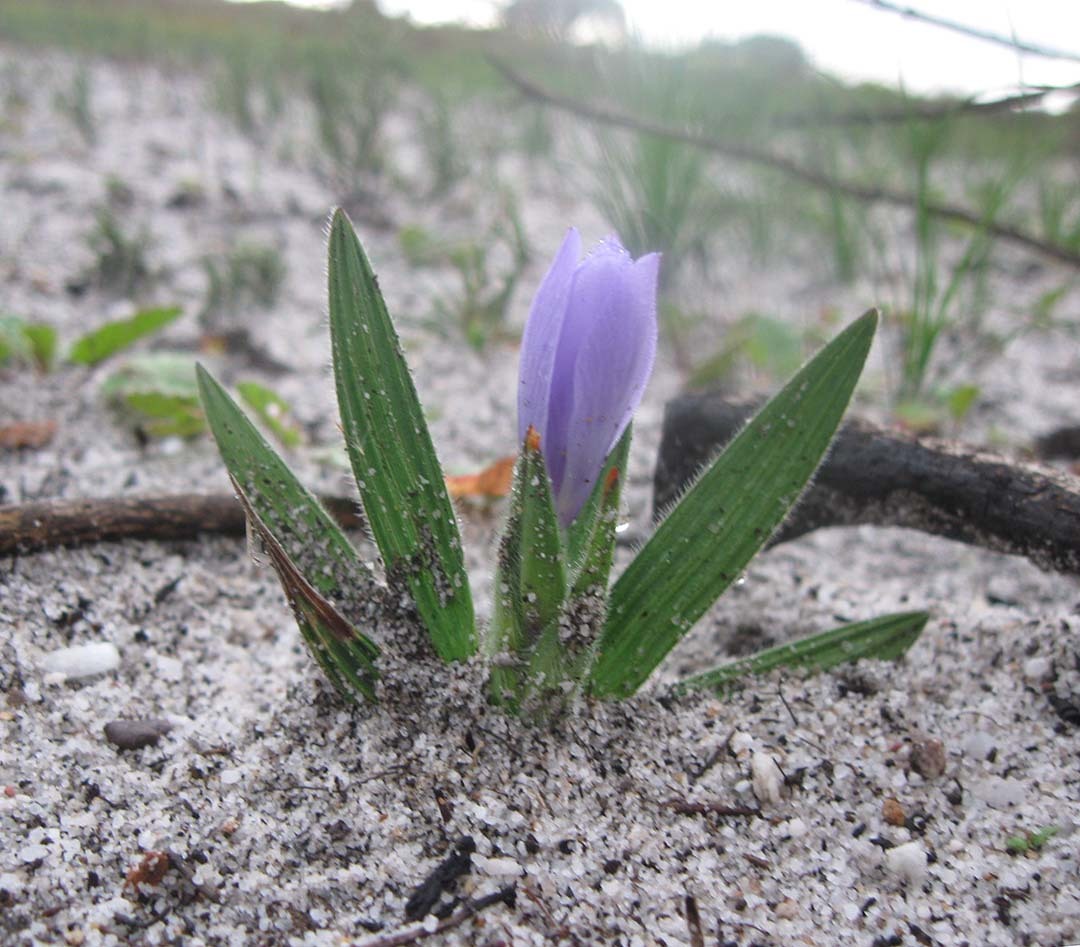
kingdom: Plantae
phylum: Tracheophyta
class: Liliopsida
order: Asparagales
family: Iridaceae
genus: Babiana
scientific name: Babiana villosula
